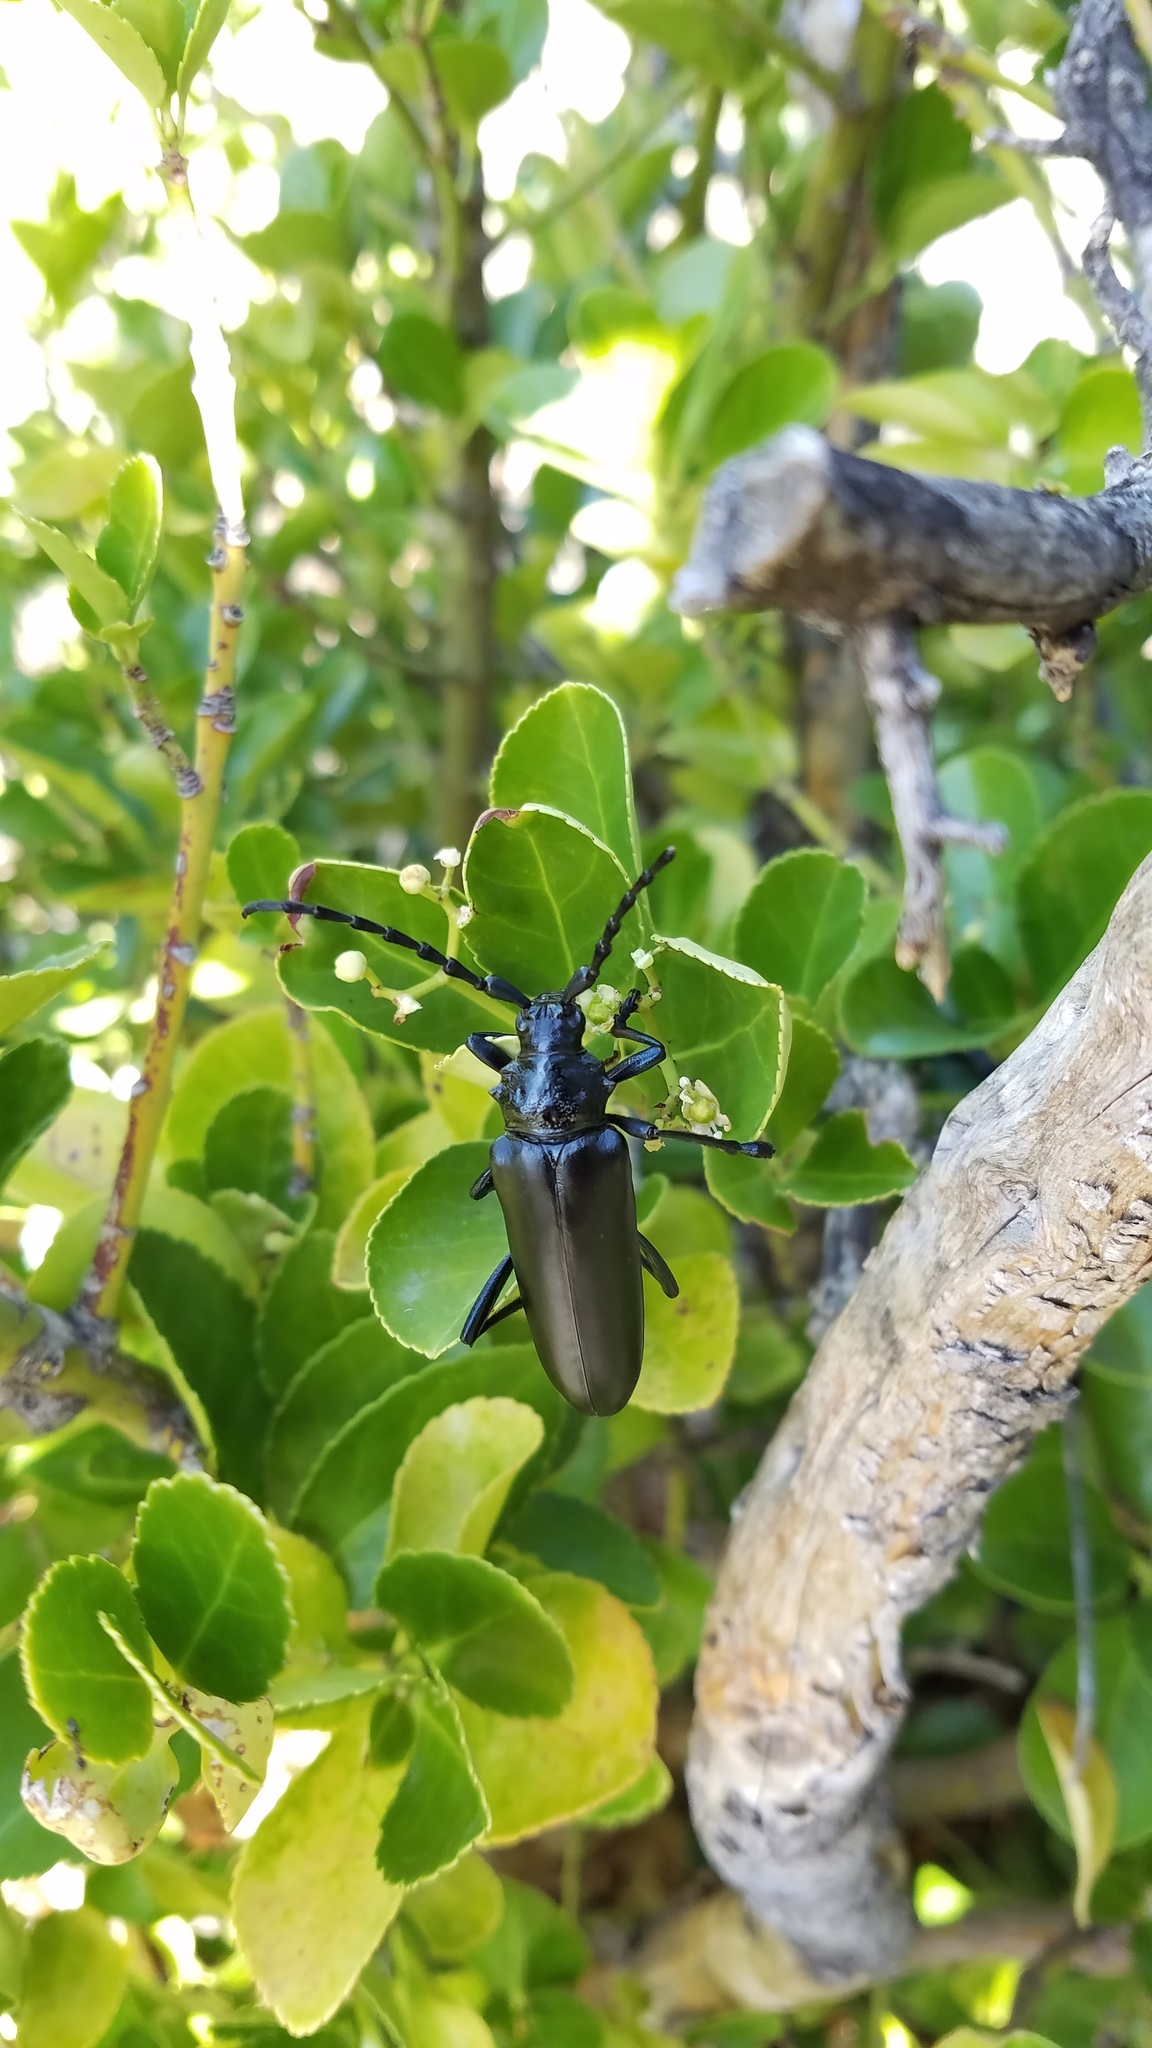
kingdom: Animalia
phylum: Arthropoda
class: Insecta
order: Coleoptera
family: Cerambycidae
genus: Stenaspis
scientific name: Stenaspis solitaria
